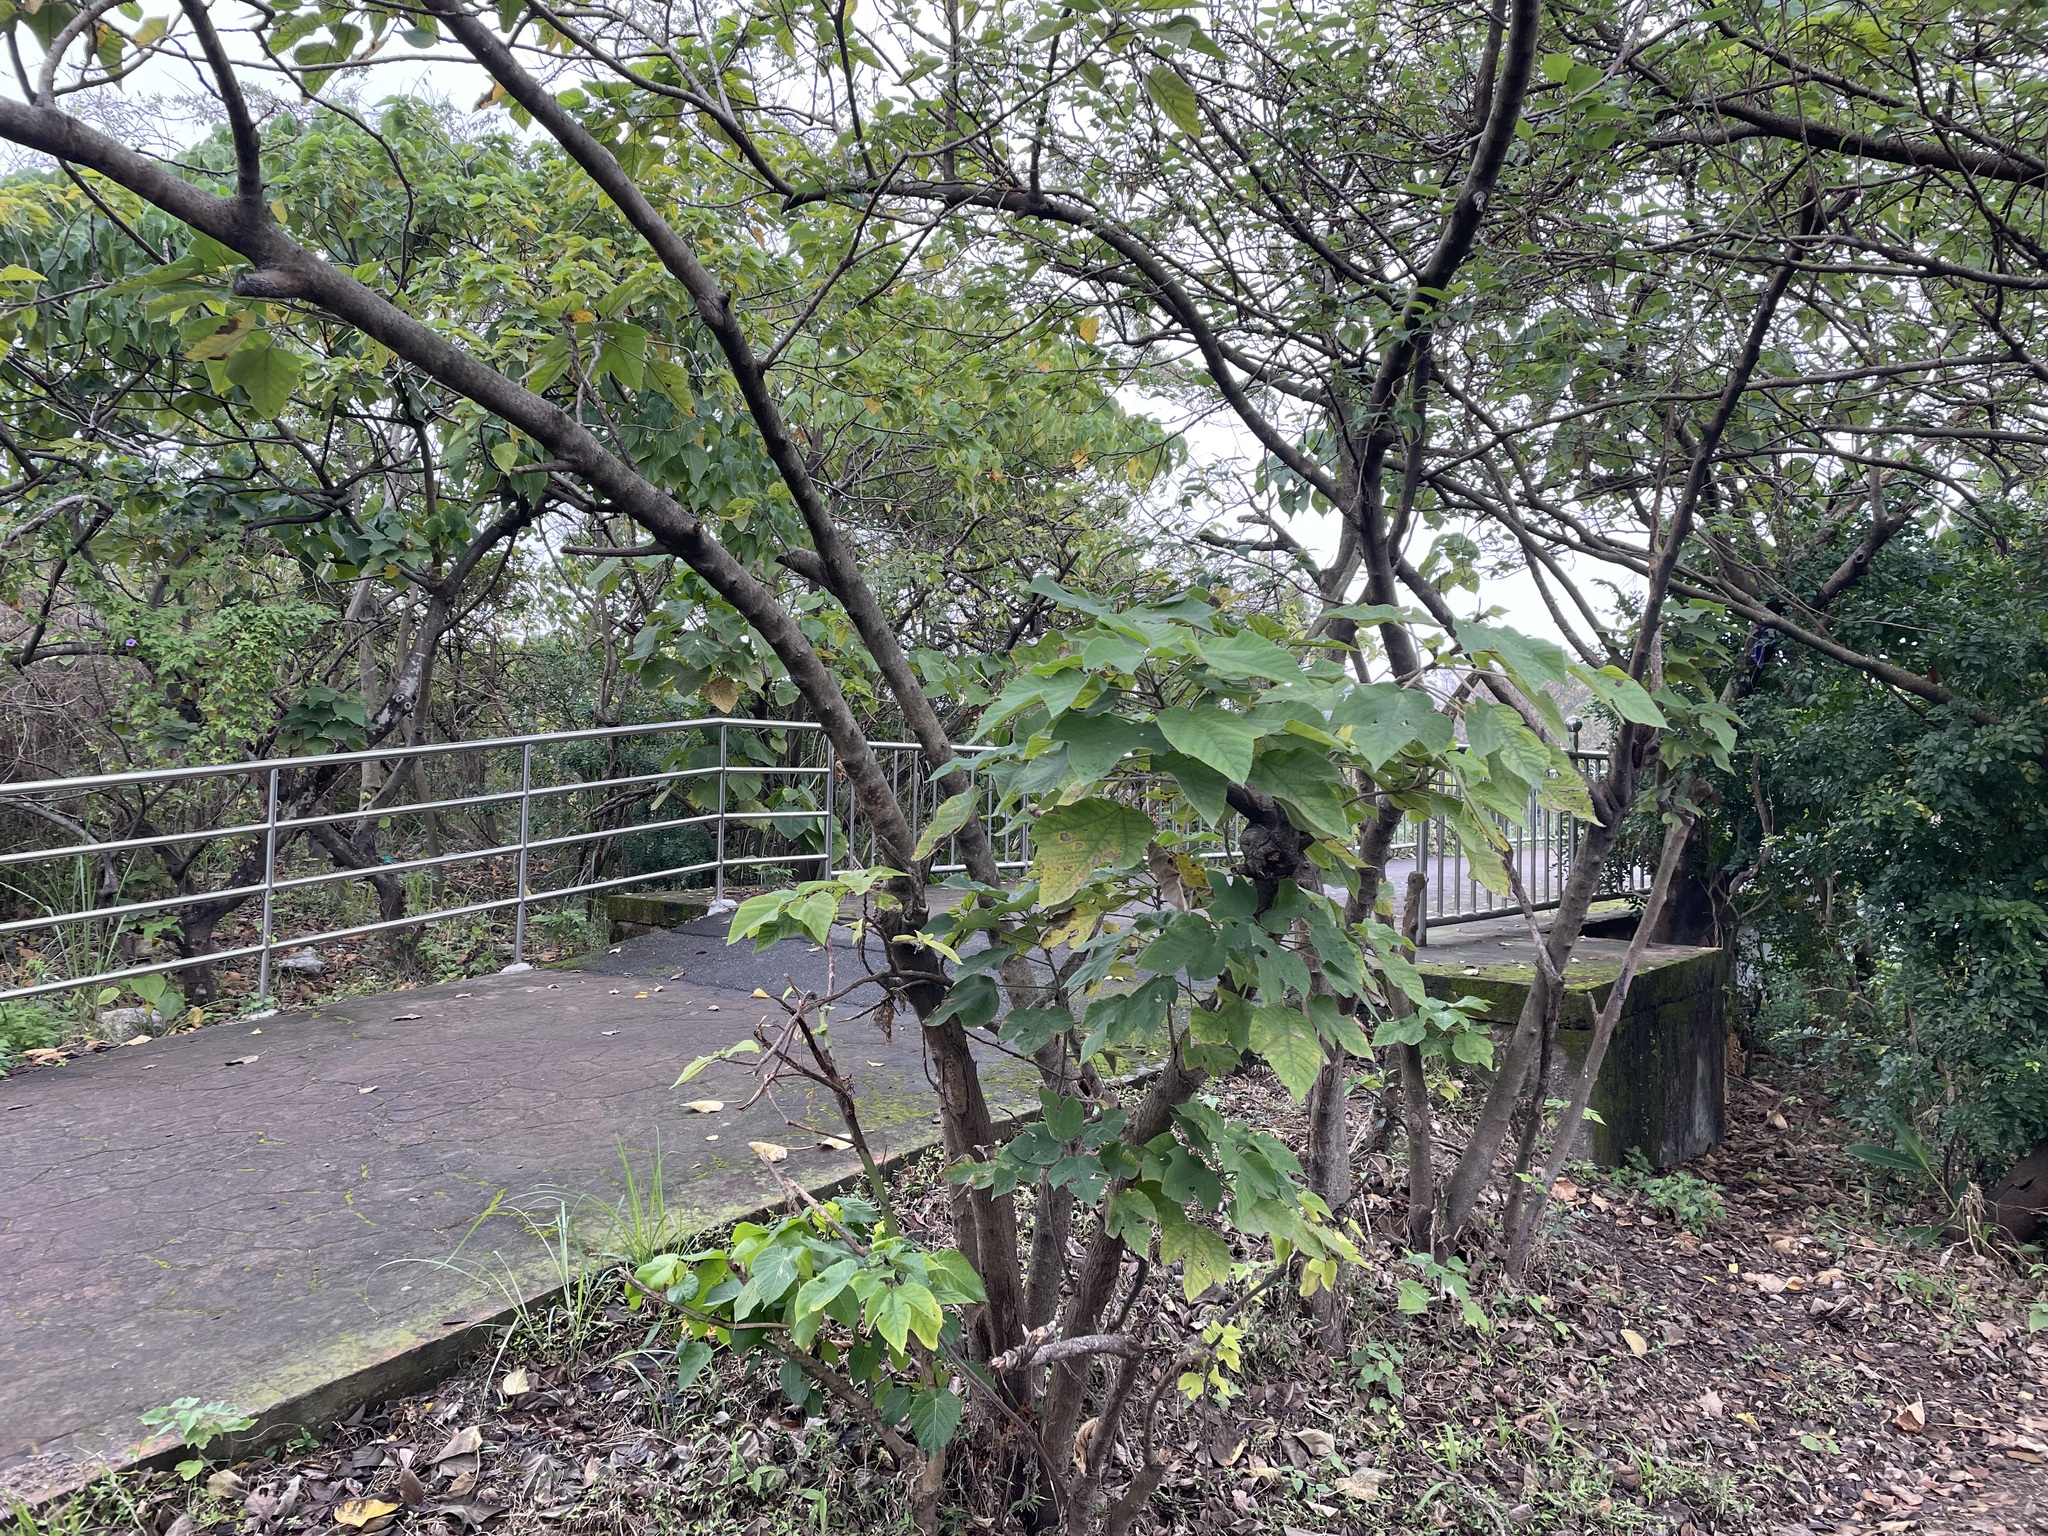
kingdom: Plantae
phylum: Tracheophyta
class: Magnoliopsida
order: Rosales
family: Moraceae
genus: Broussonetia
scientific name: Broussonetia papyrifera
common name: Paper mulberry
